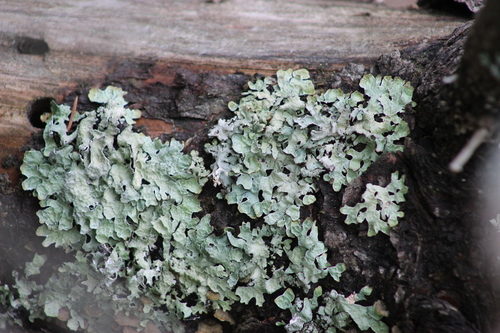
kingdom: Fungi
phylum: Ascomycota
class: Lecanoromycetes
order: Lecanorales
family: Parmeliaceae
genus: Parmelia
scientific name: Parmelia sulcata
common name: Netted shield lichen
